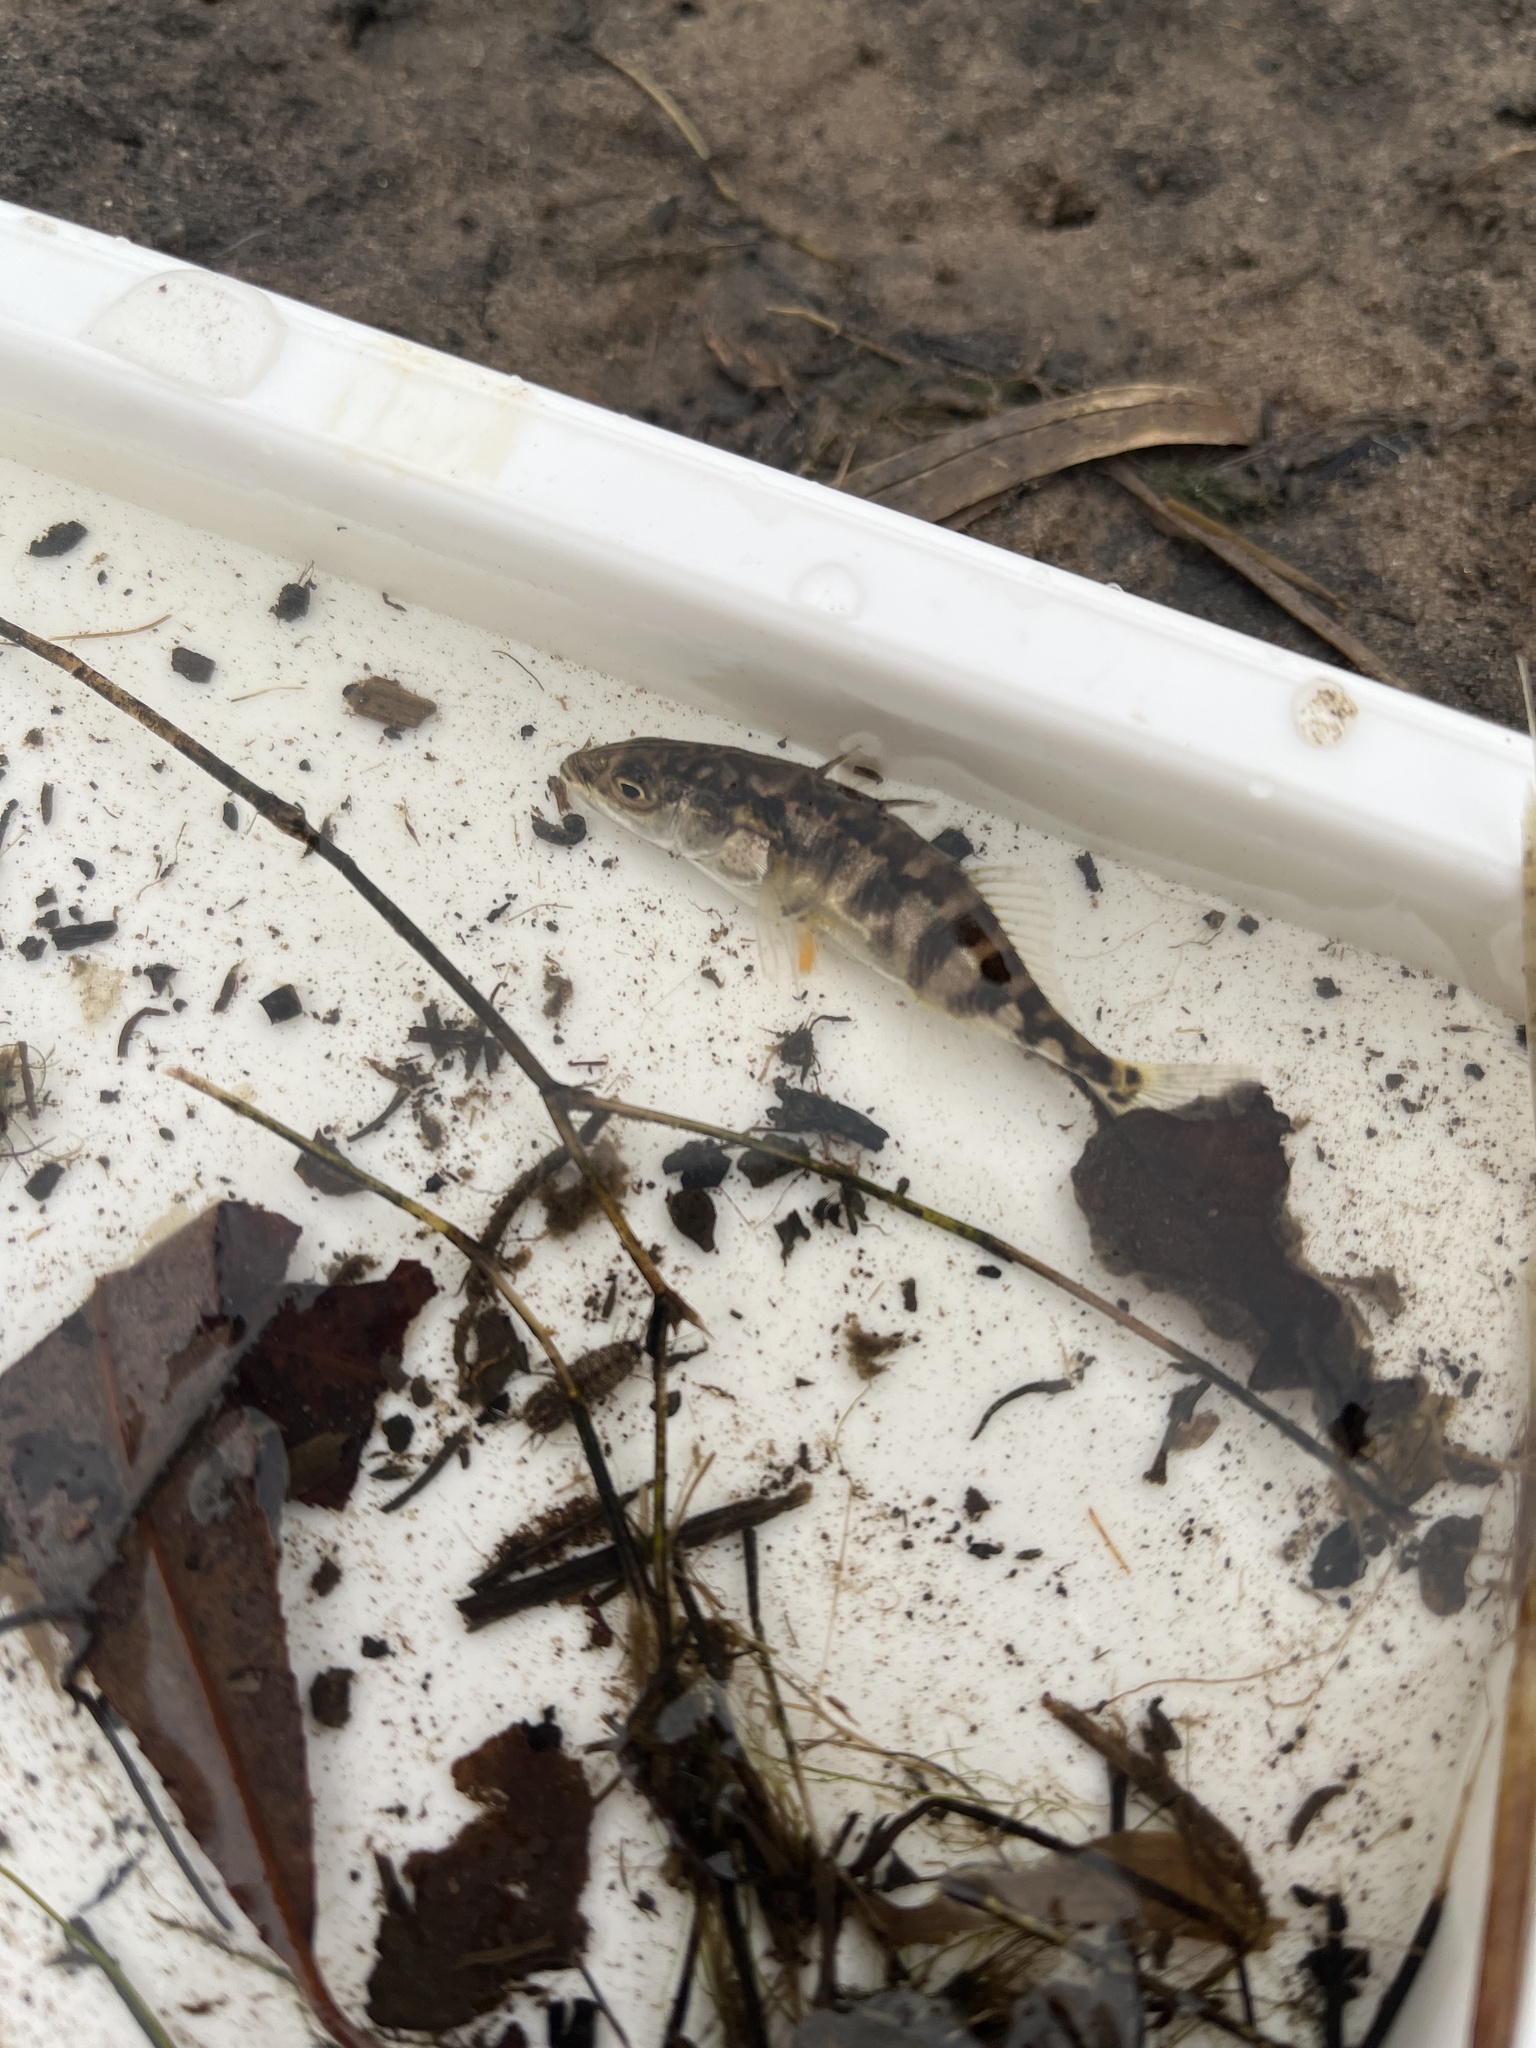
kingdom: Animalia
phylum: Chordata
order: Gasterosteiformes
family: Gasterosteidae
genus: Gasterosteus
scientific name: Gasterosteus aculeatus
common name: Three-spined stickleback
